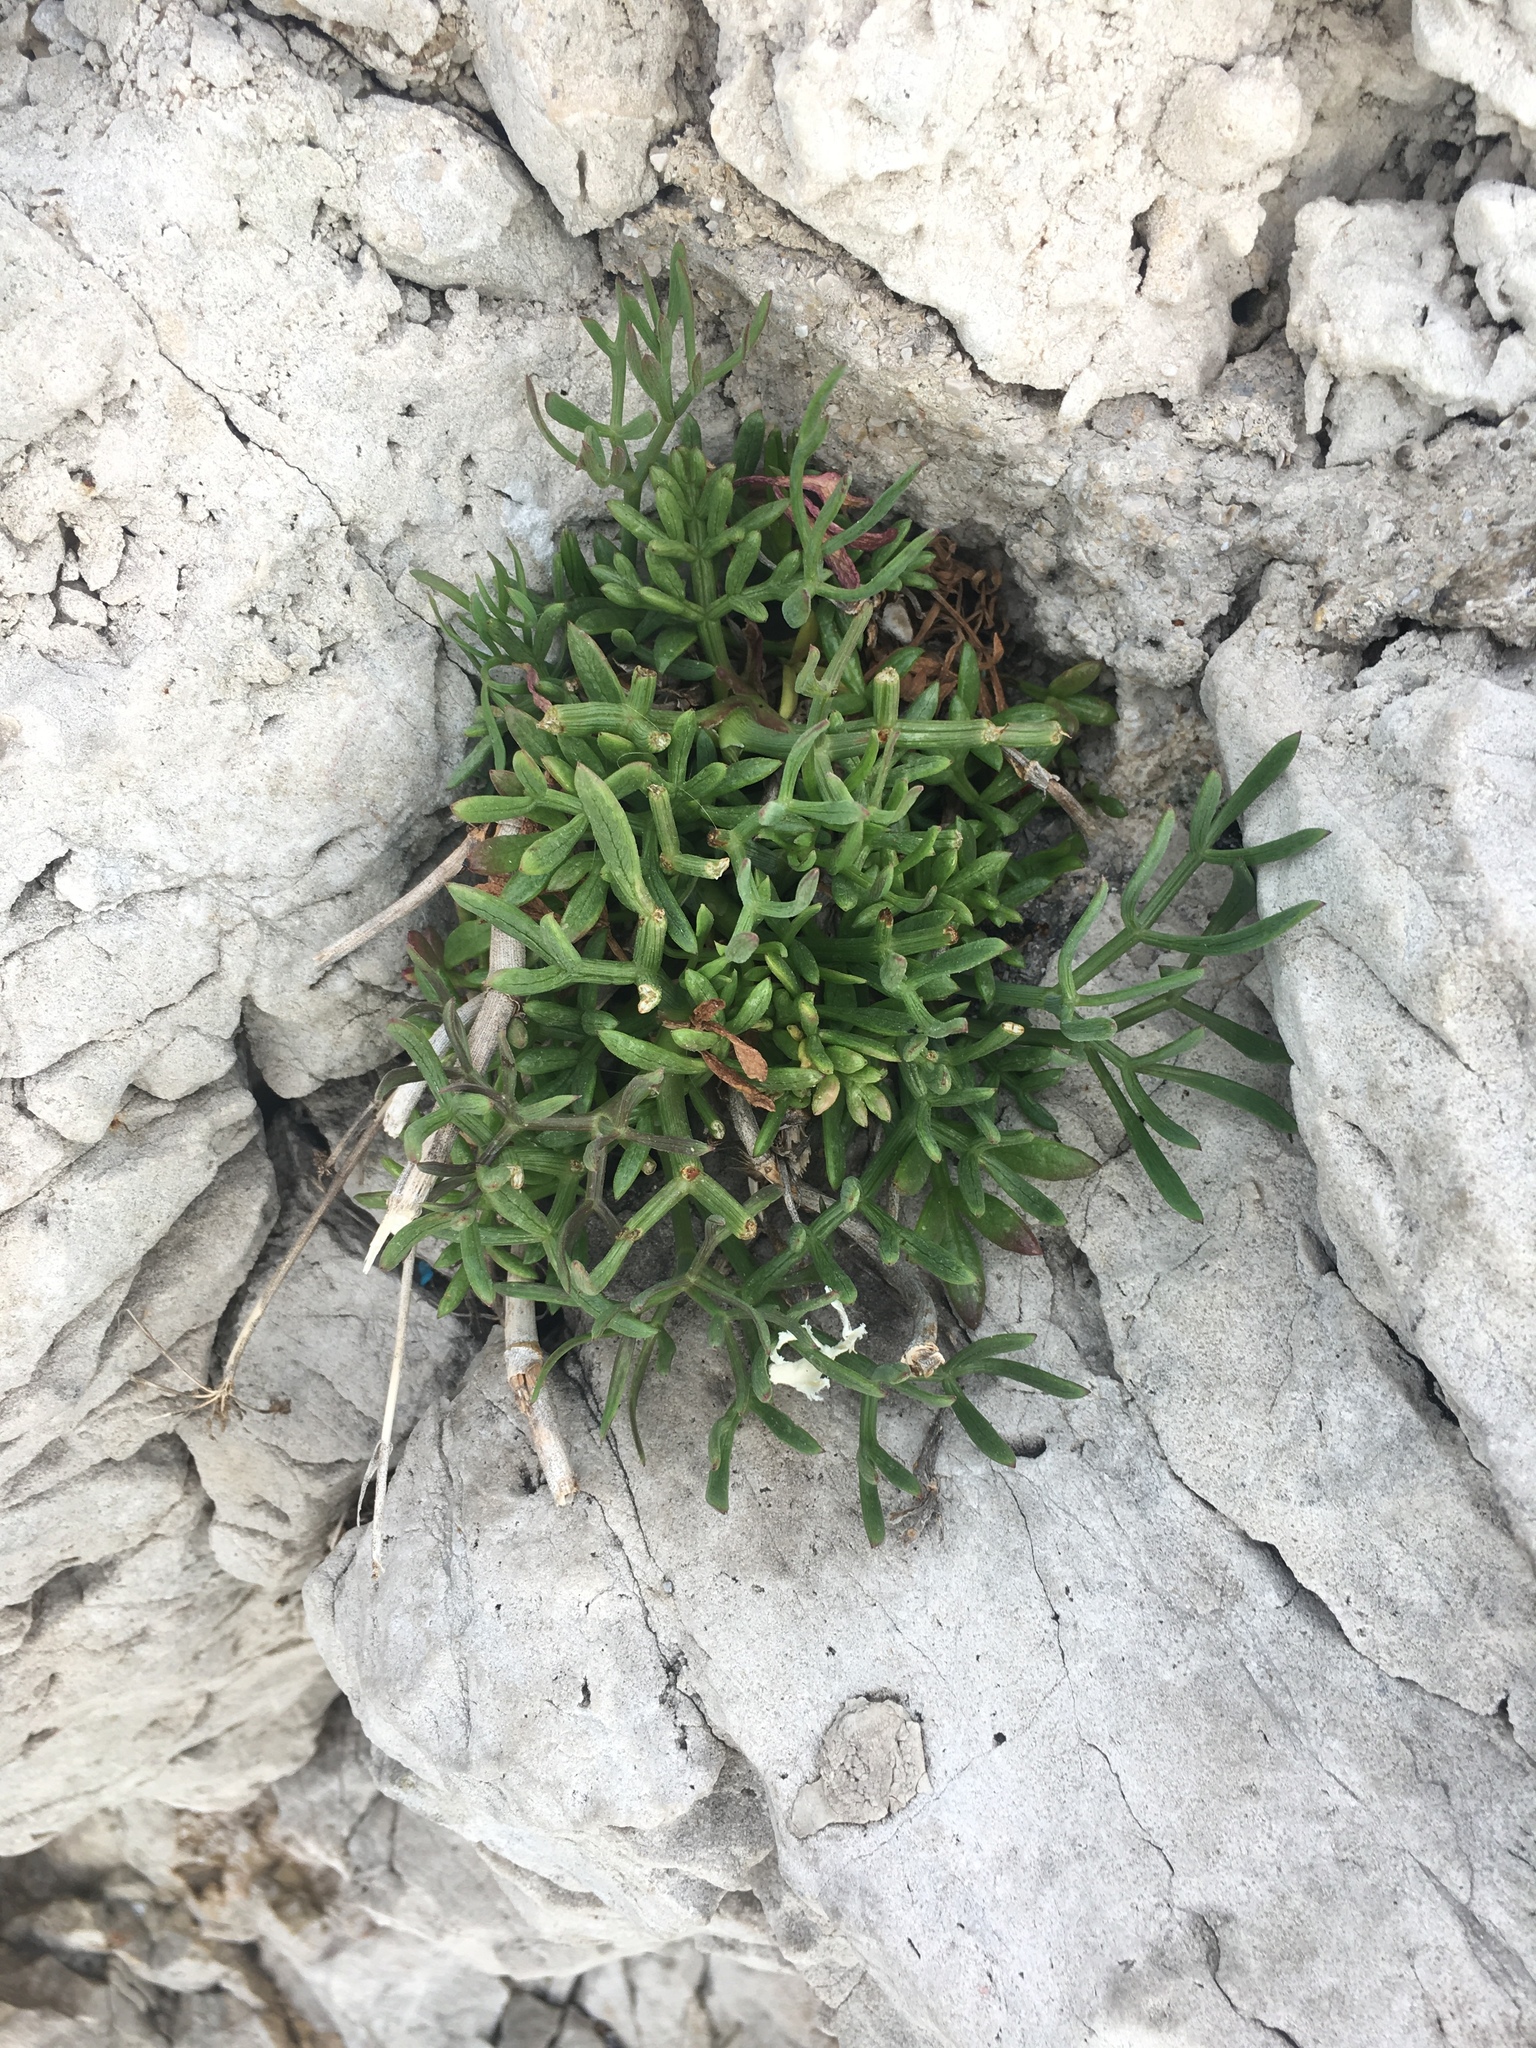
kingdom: Plantae
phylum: Tracheophyta
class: Magnoliopsida
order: Apiales
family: Apiaceae
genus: Crithmum
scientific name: Crithmum maritimum
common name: Rock samphire
